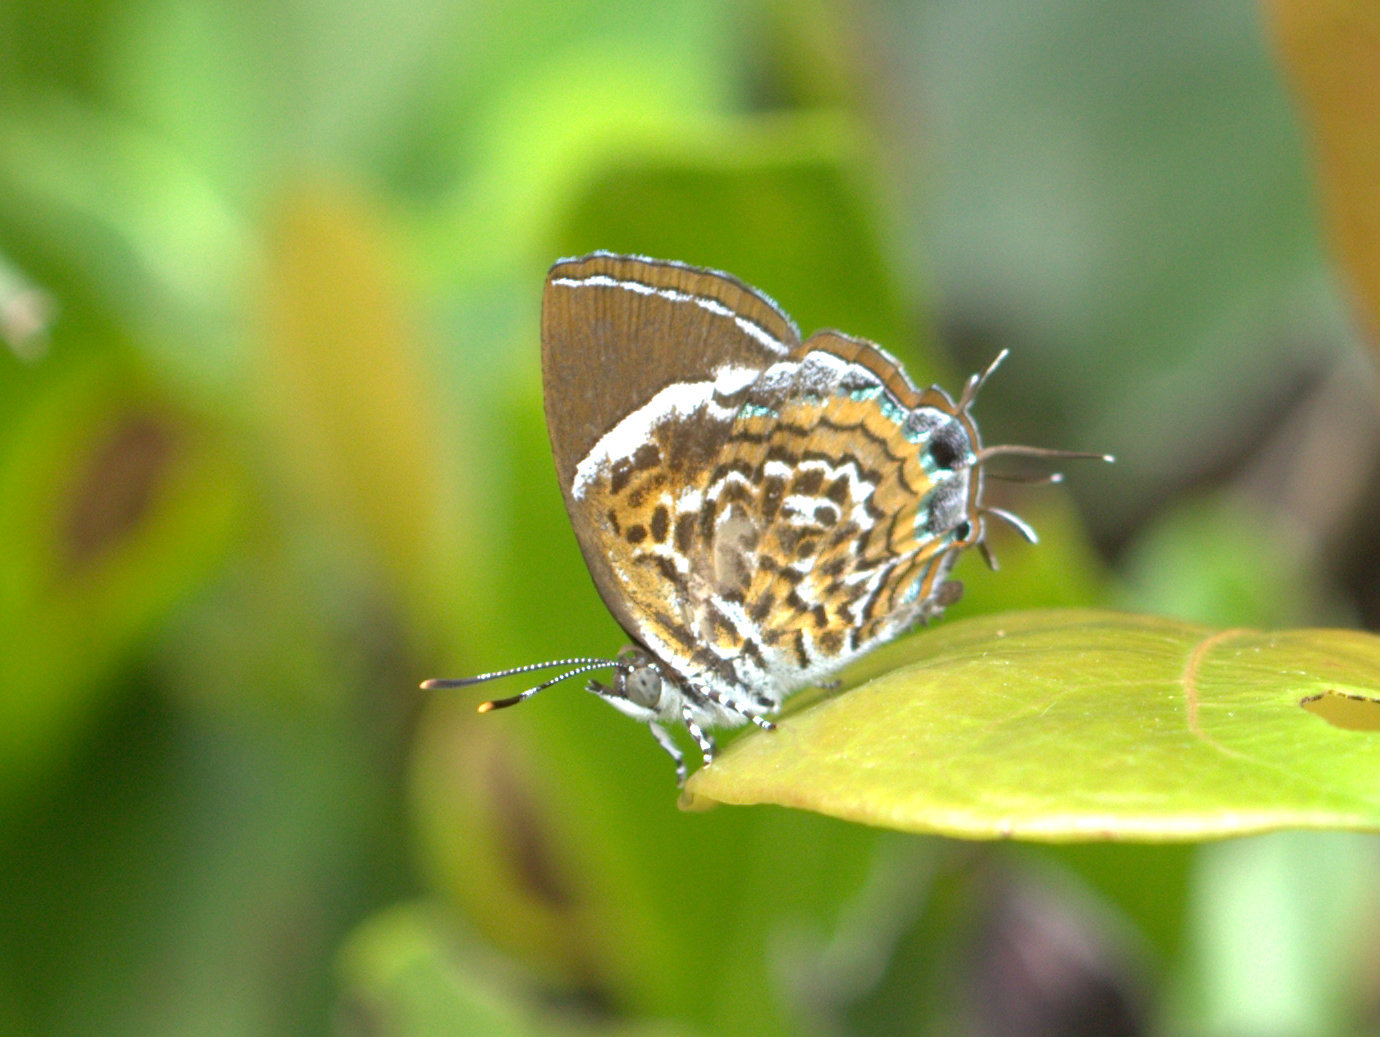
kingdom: Animalia
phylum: Arthropoda
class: Insecta
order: Lepidoptera
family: Lycaenidae
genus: Rathinda
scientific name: Rathinda amor
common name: Monkey puzzle
